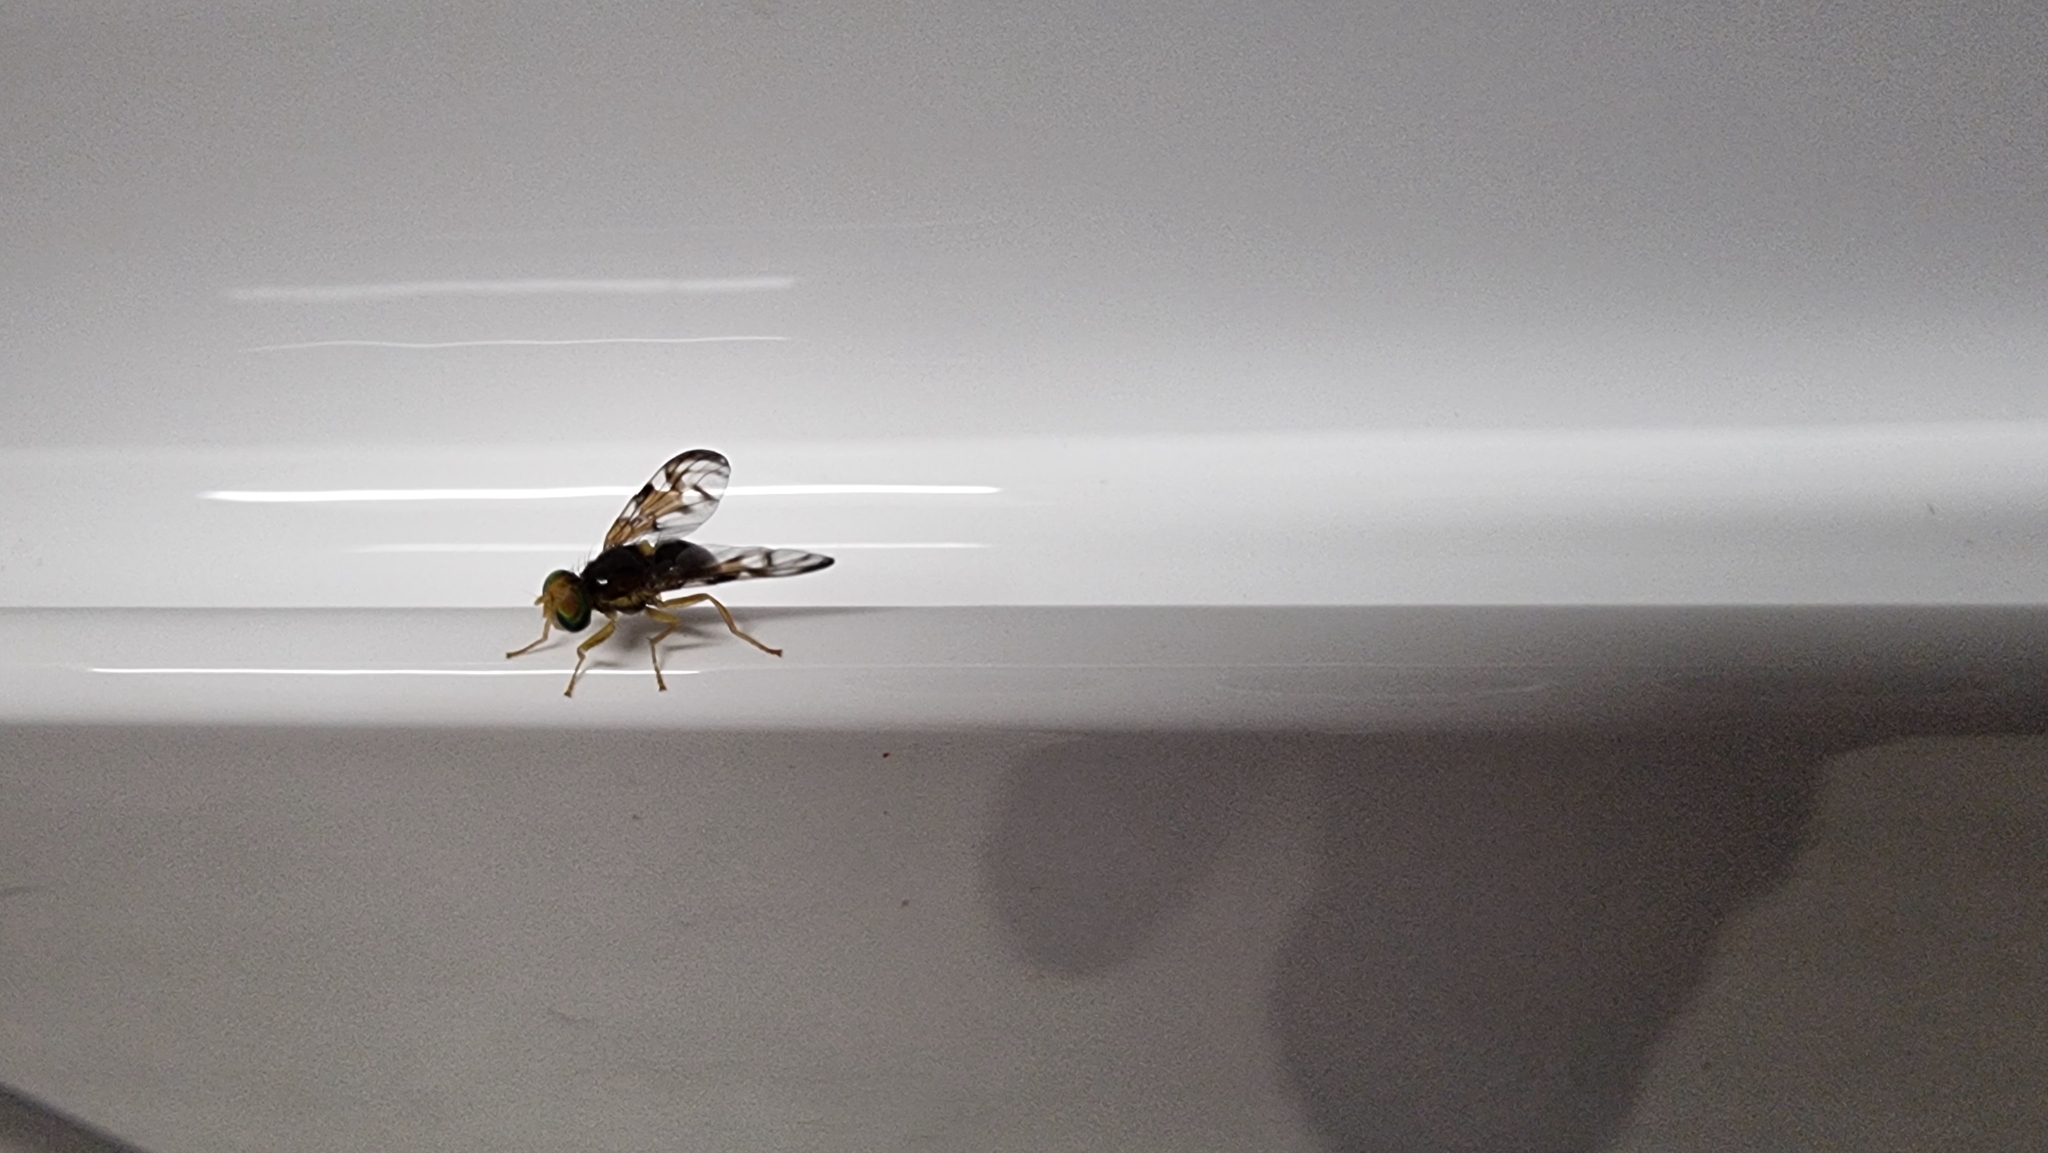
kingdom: Animalia
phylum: Arthropoda
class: Insecta
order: Diptera
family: Tephritidae
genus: Euleia
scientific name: Euleia heraclei
